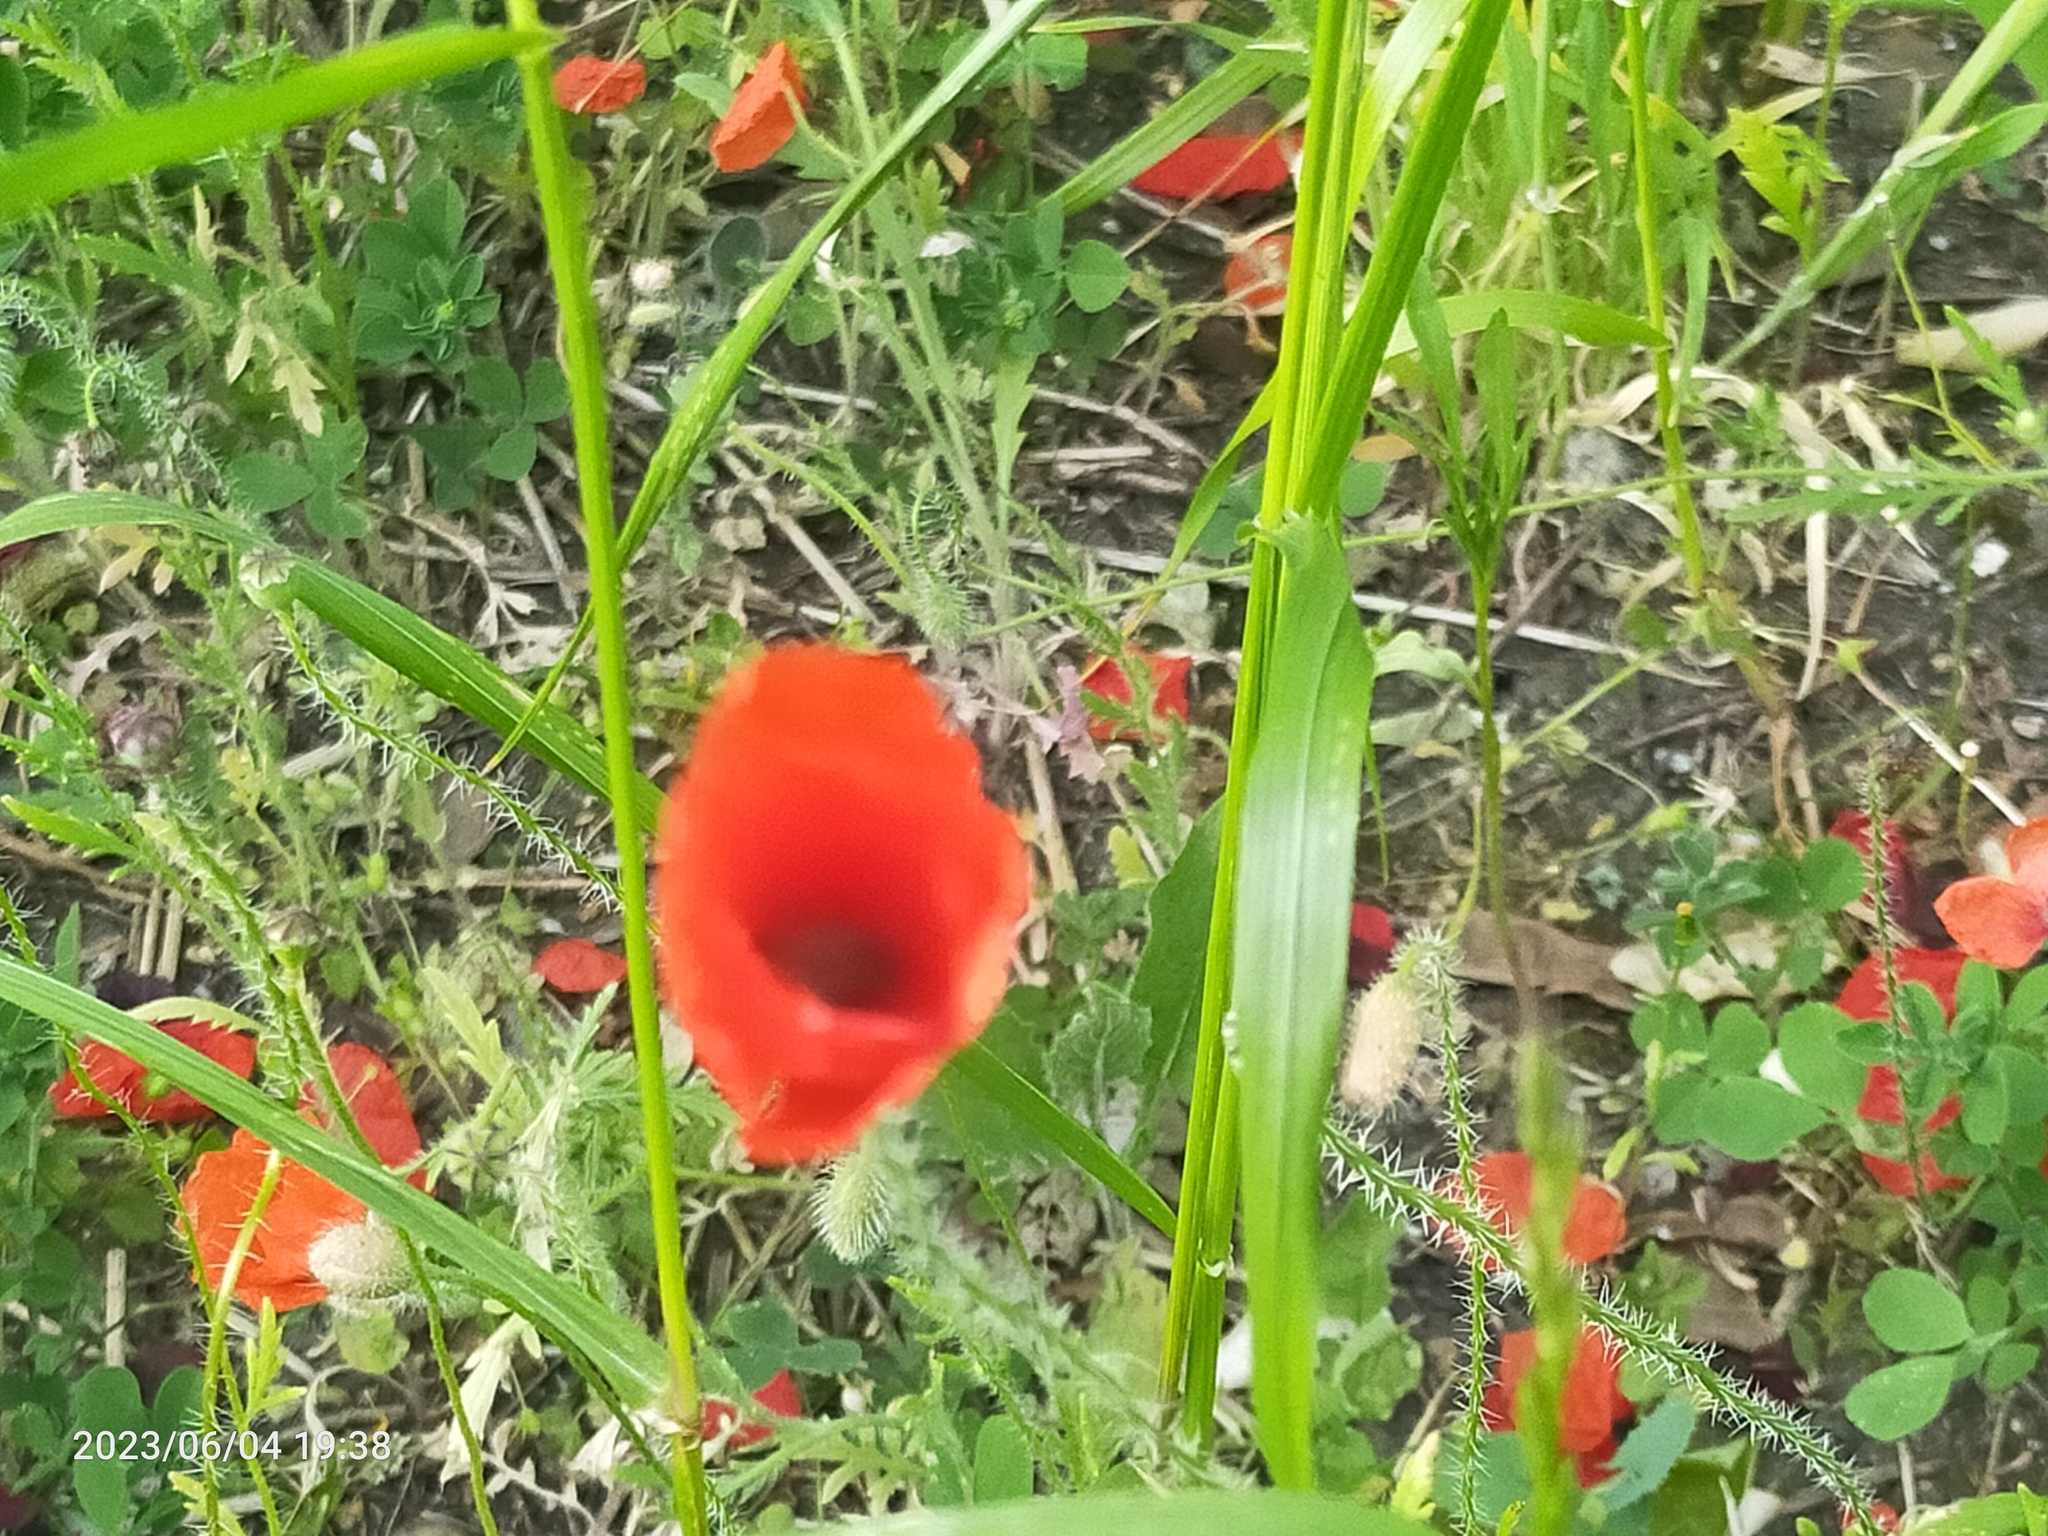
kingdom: Plantae
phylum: Tracheophyta
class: Magnoliopsida
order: Ranunculales
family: Papaveraceae
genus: Papaver
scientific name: Papaver rhoeas
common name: Corn poppy
